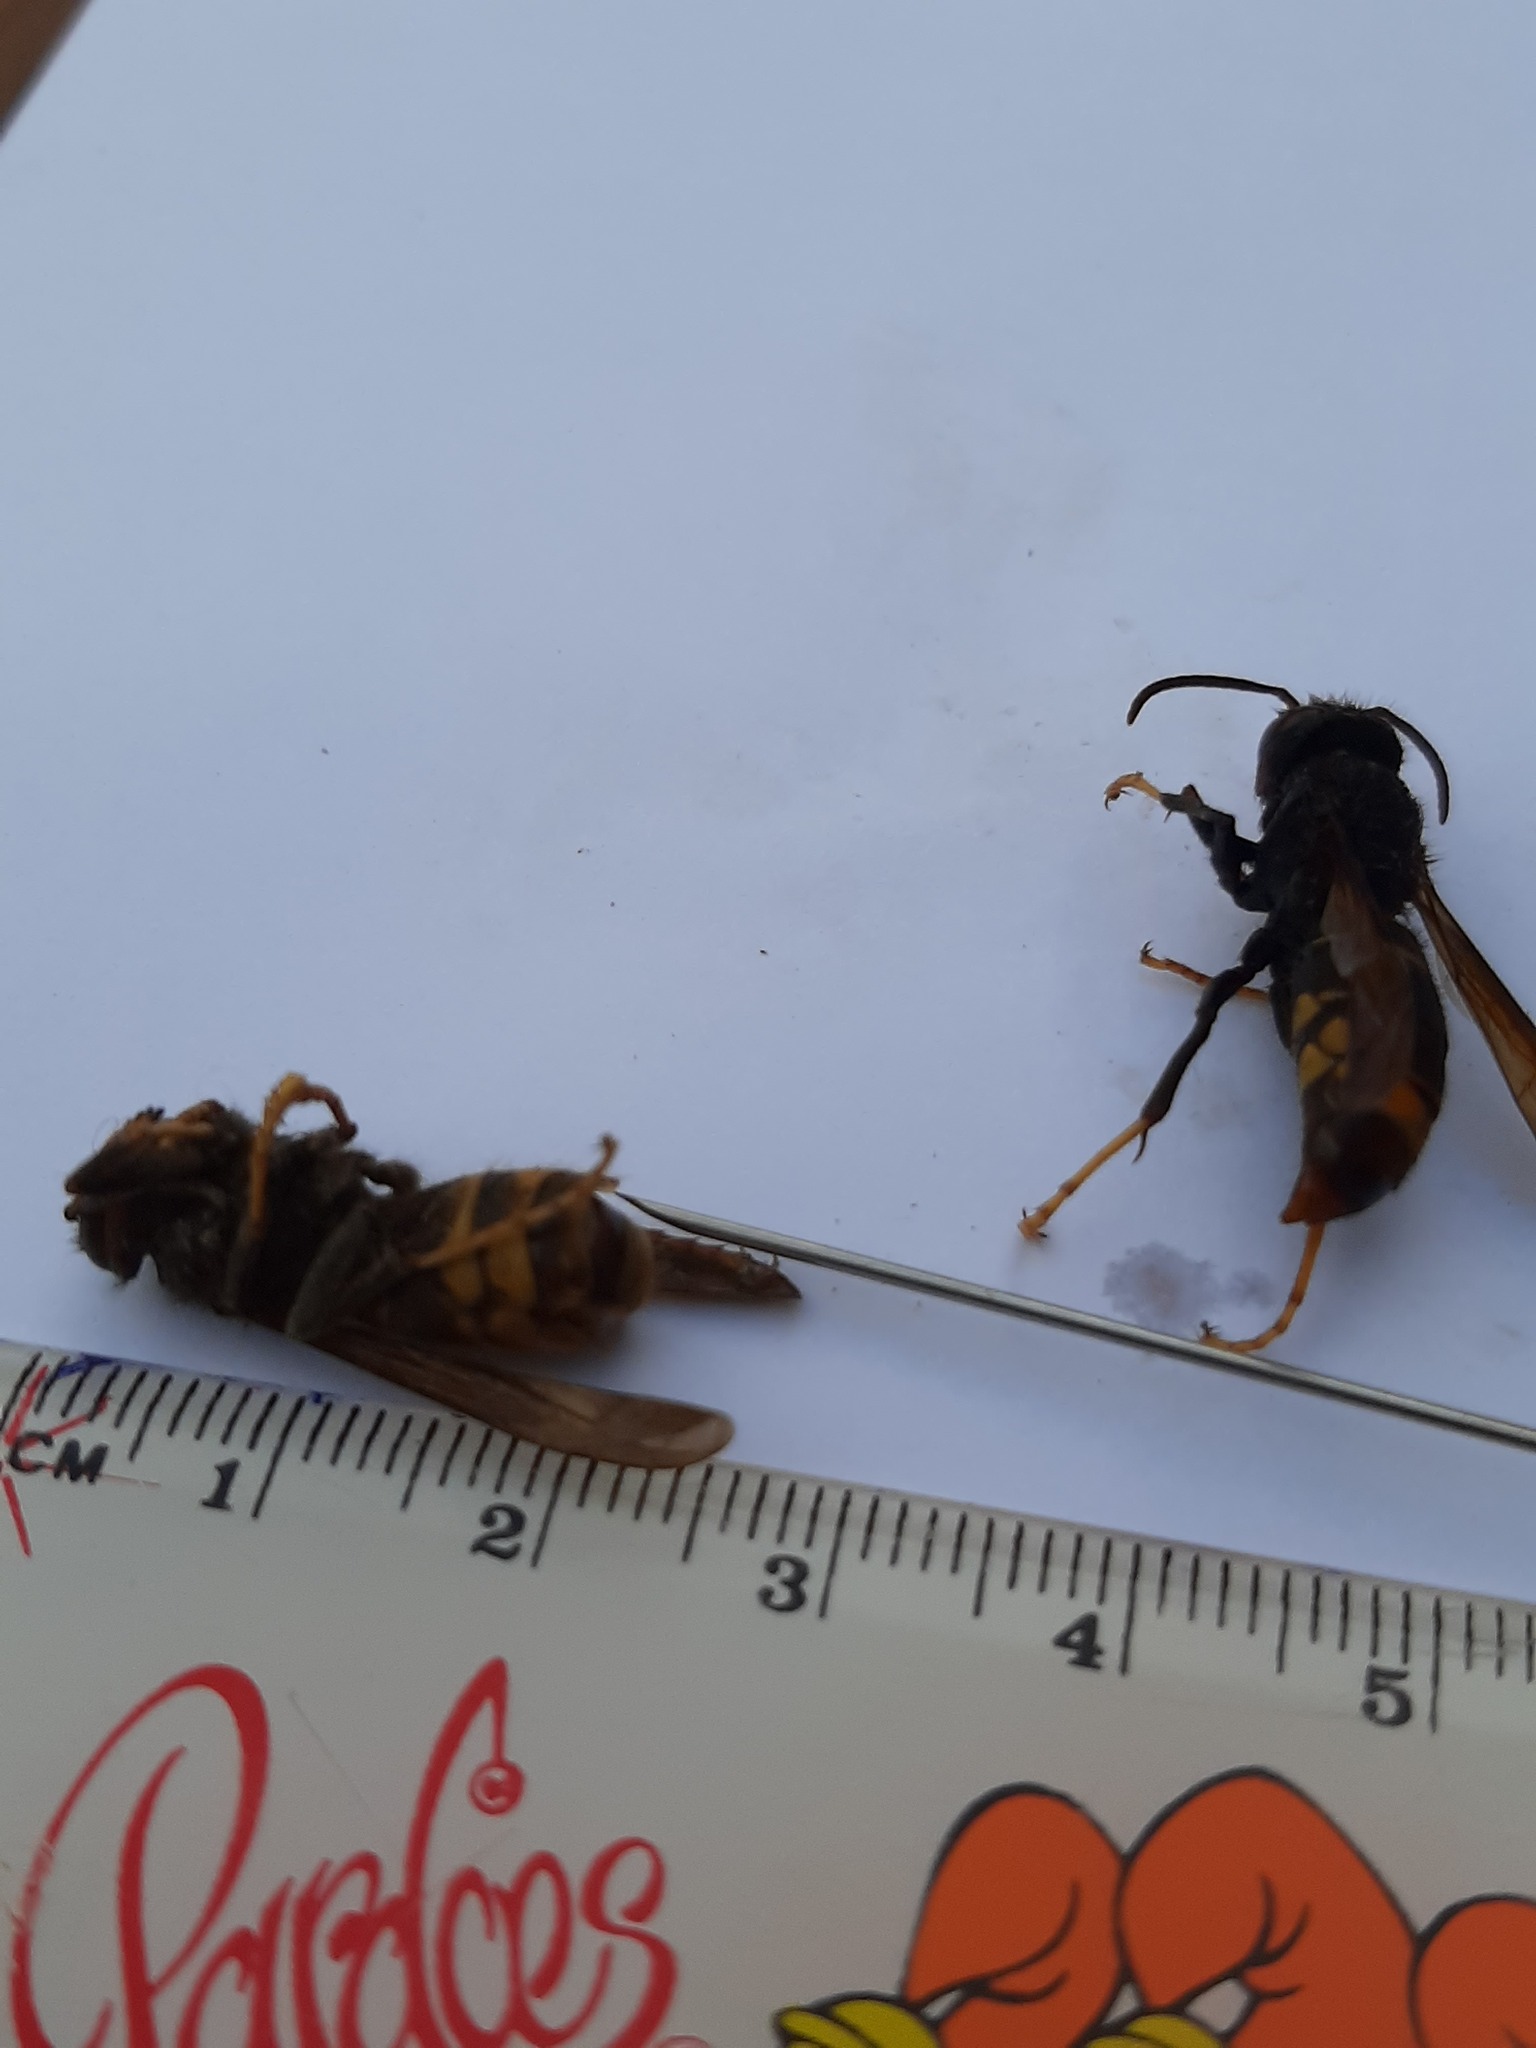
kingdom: Animalia
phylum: Arthropoda
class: Insecta
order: Hymenoptera
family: Vespidae
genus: Vespa
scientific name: Vespa velutina
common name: Asian hornet
